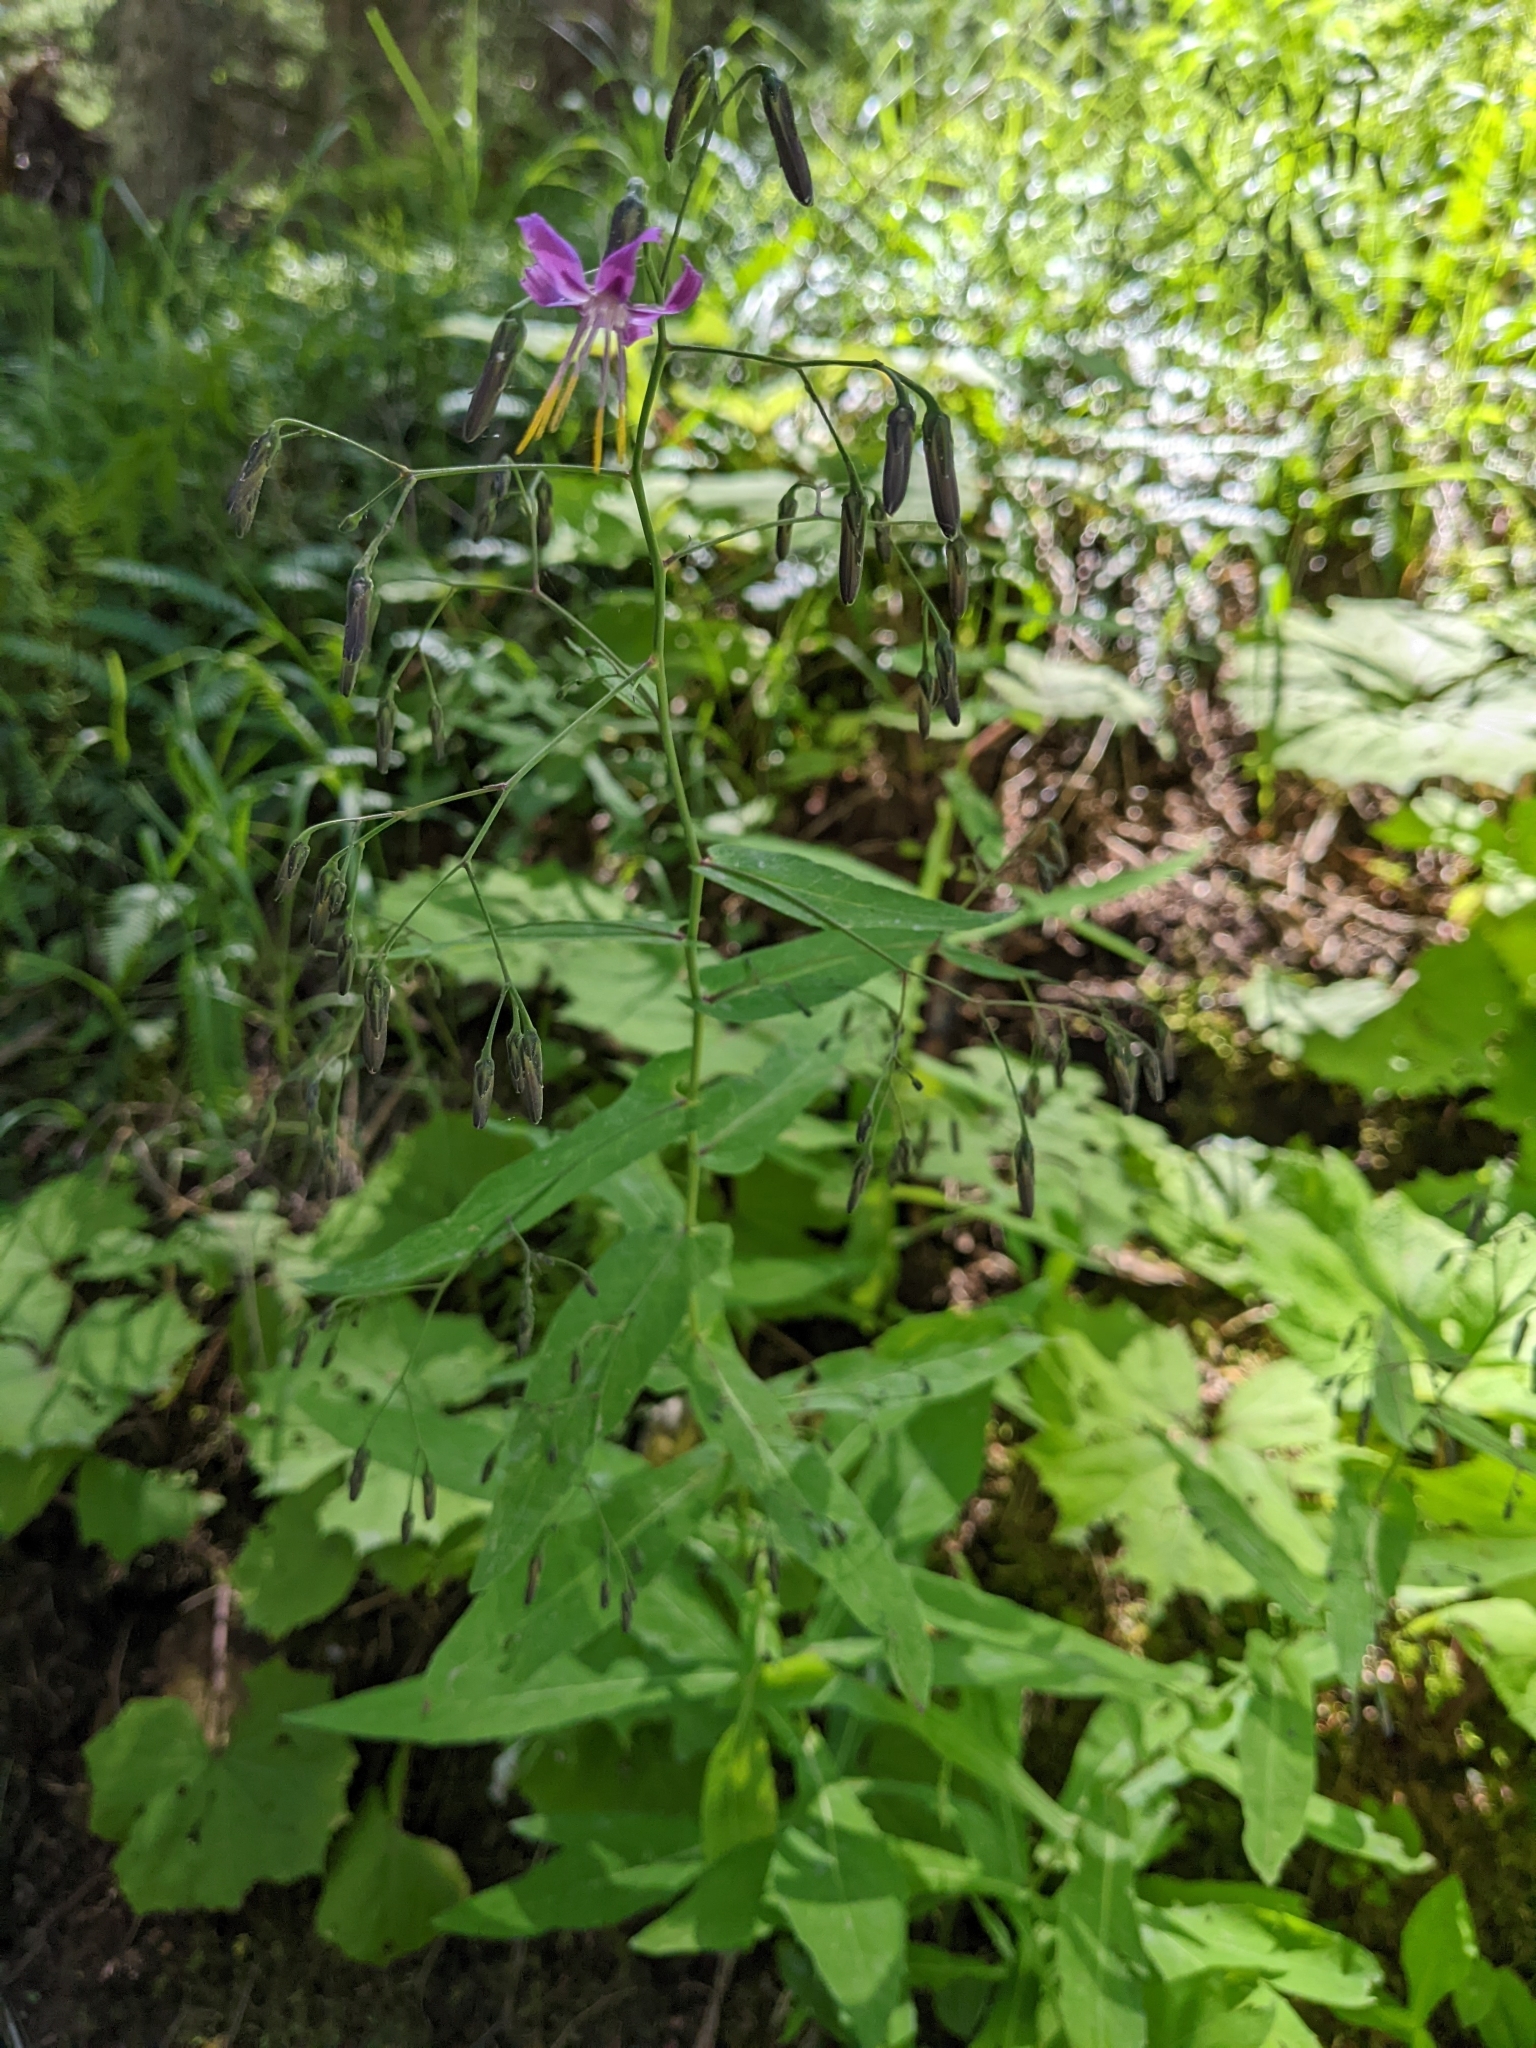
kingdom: Plantae
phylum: Tracheophyta
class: Magnoliopsida
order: Asterales
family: Asteraceae
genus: Prenanthes
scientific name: Prenanthes purpurea
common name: Purple lettuce
